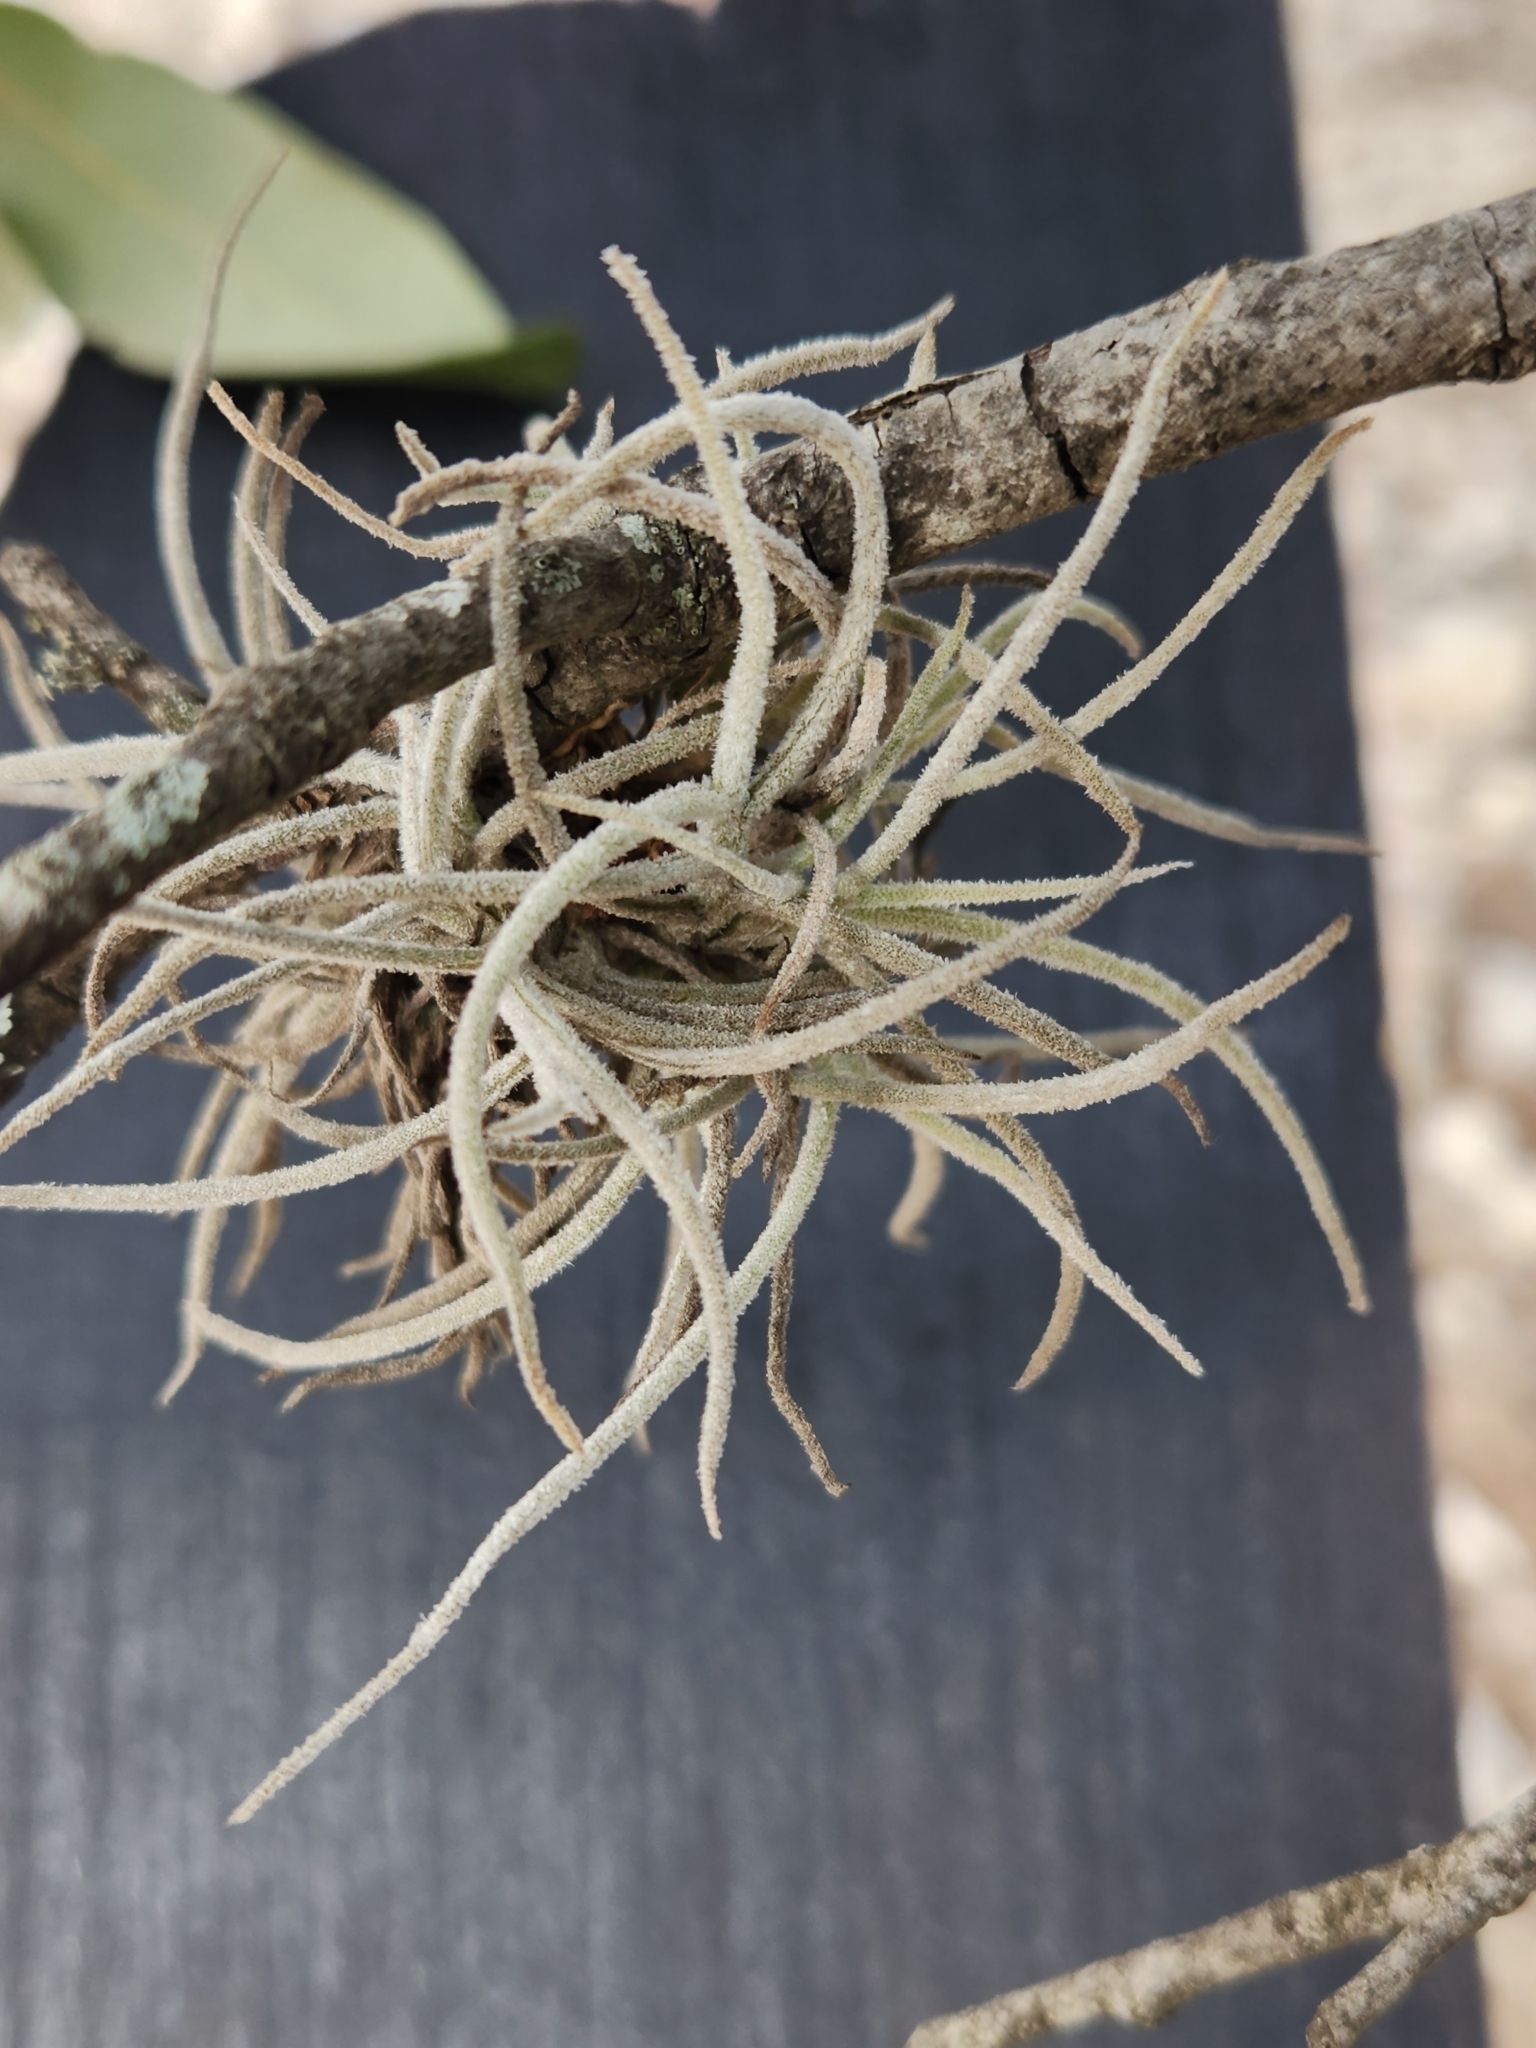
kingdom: Plantae
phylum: Tracheophyta
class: Liliopsida
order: Poales
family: Bromeliaceae
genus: Tillandsia
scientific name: Tillandsia recurvata
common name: Small ballmoss
